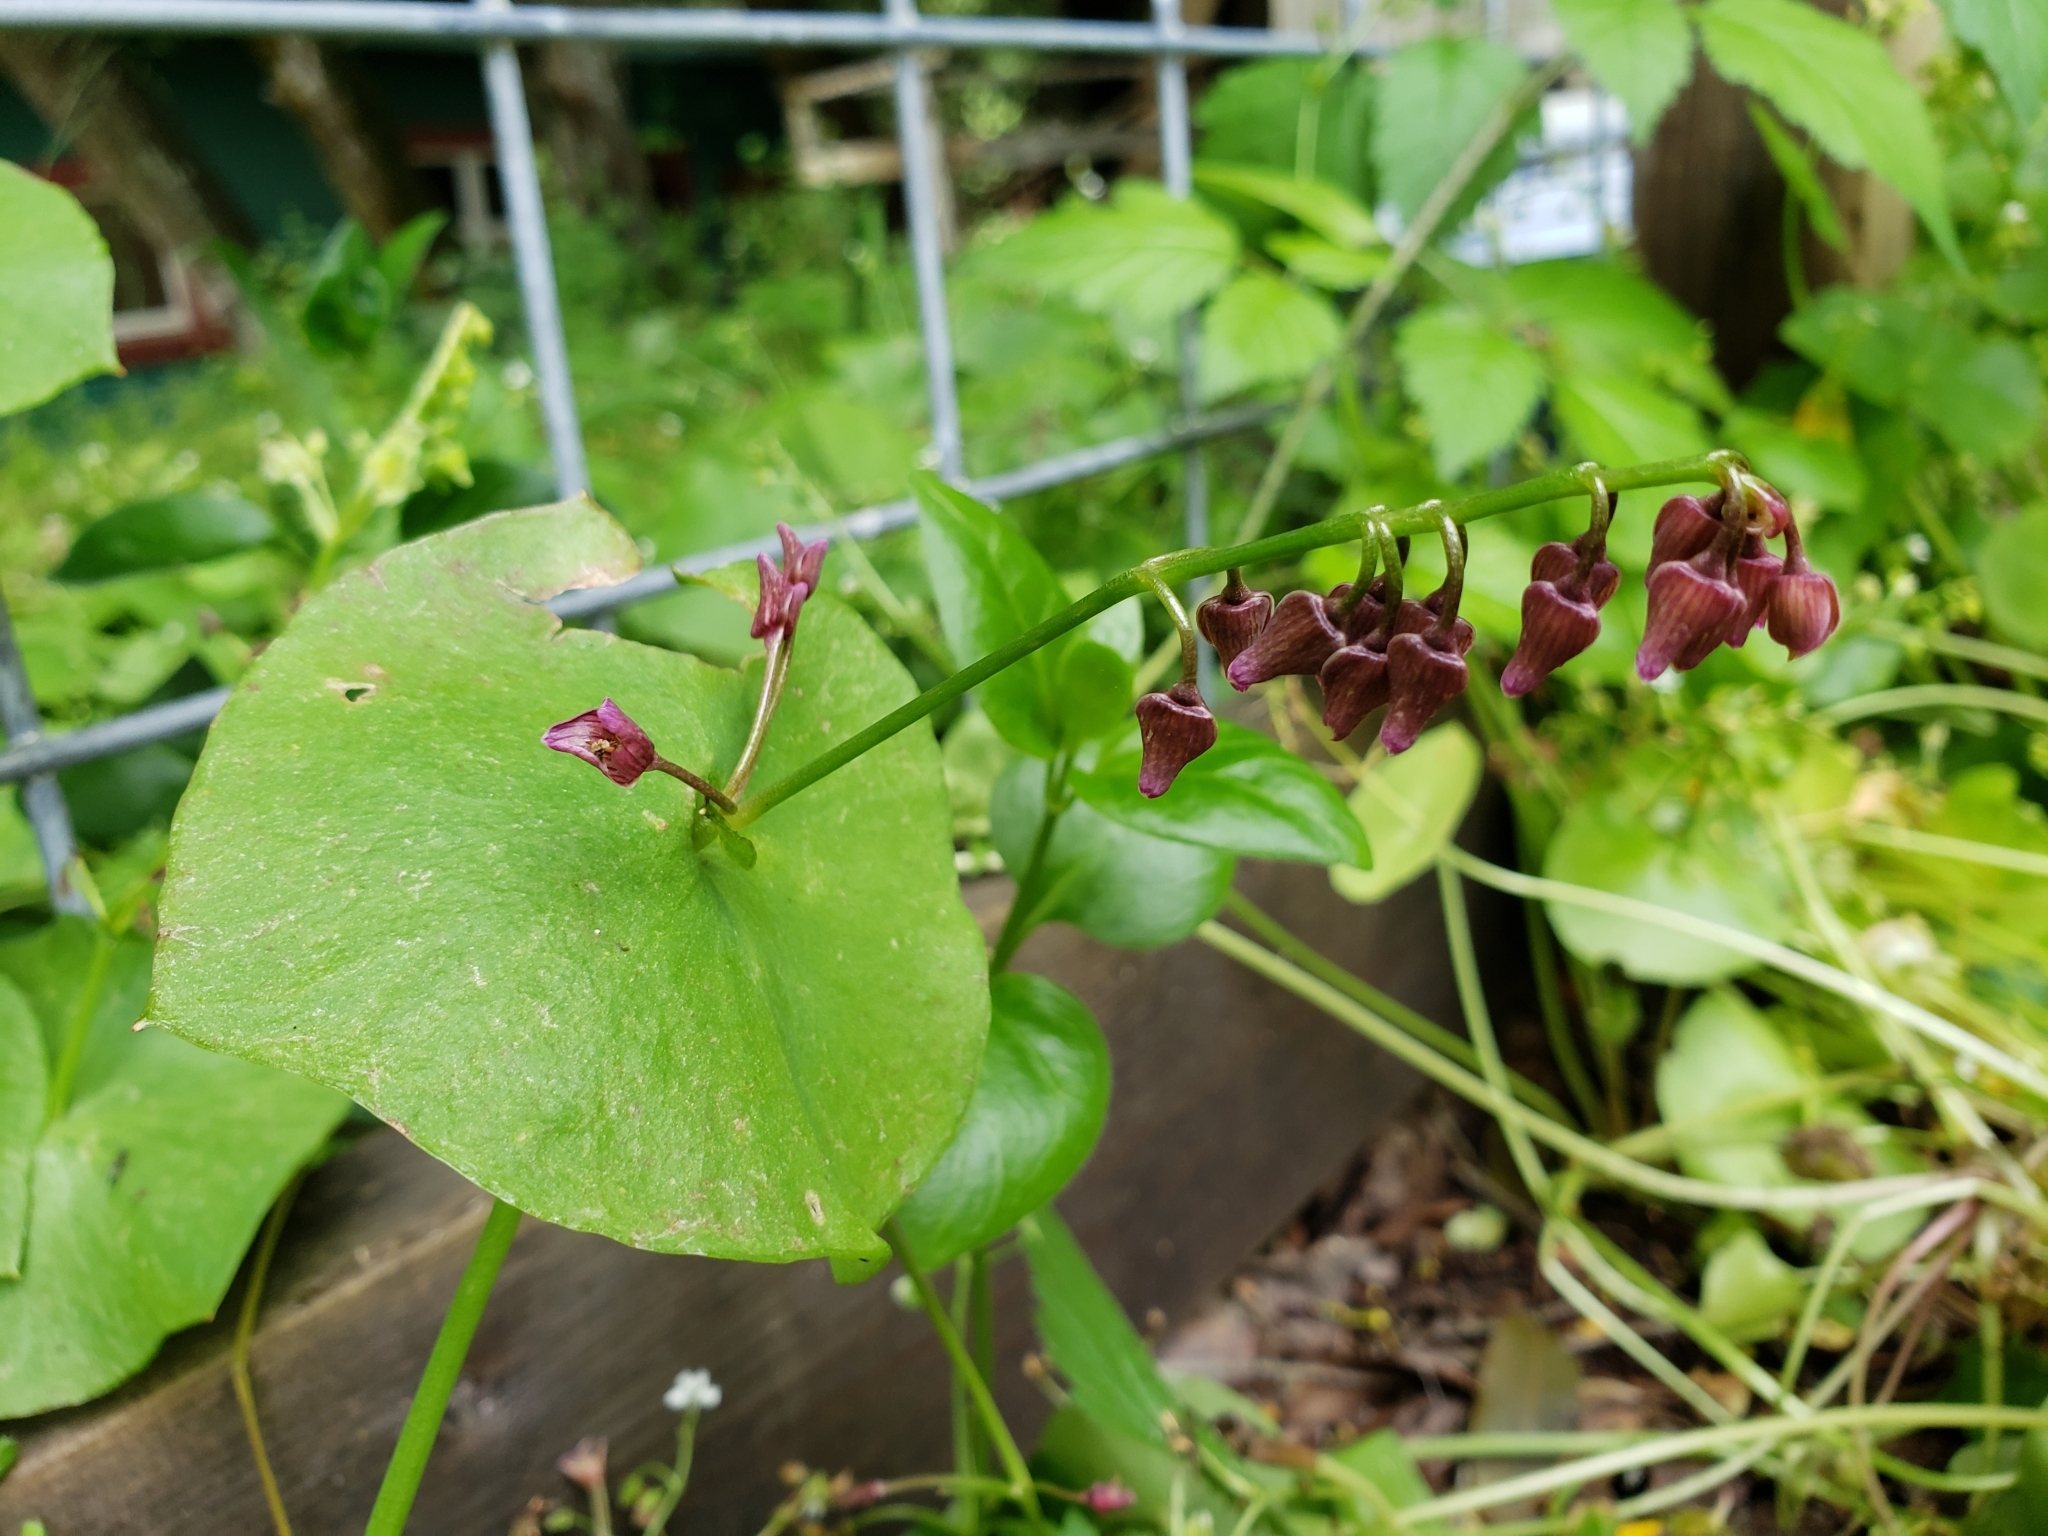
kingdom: Plantae
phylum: Tracheophyta
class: Magnoliopsida
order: Caryophyllales
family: Montiaceae
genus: Claytonia
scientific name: Claytonia perfoliata
